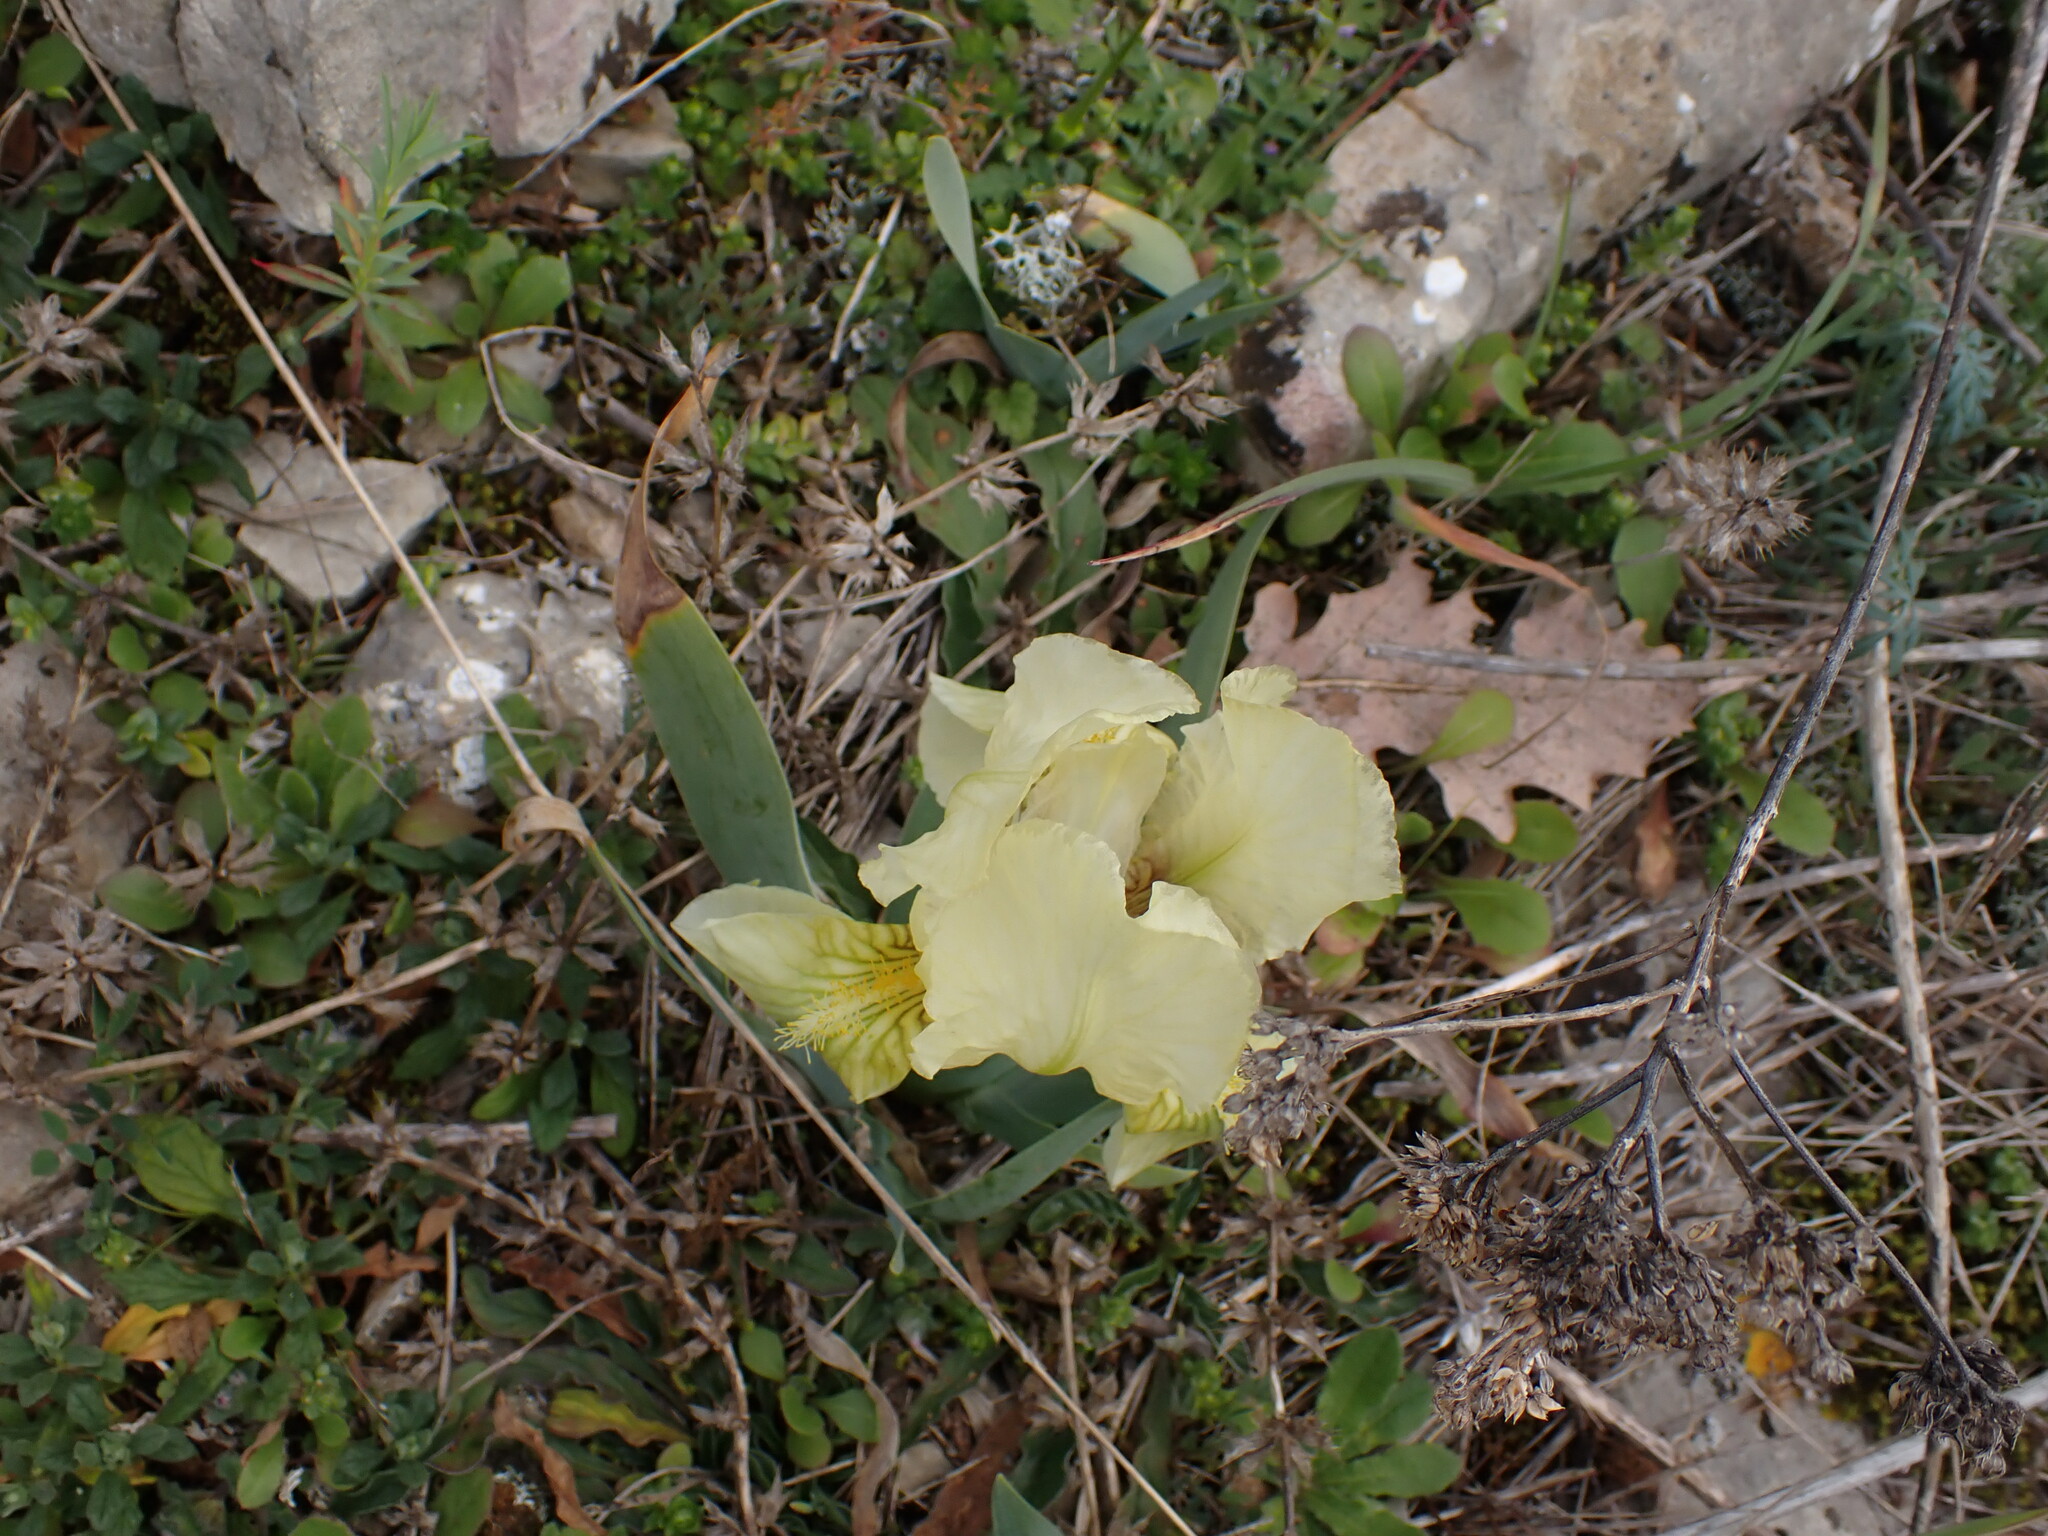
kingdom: Plantae
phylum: Tracheophyta
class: Liliopsida
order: Asparagales
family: Iridaceae
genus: Iris
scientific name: Iris lutescens
